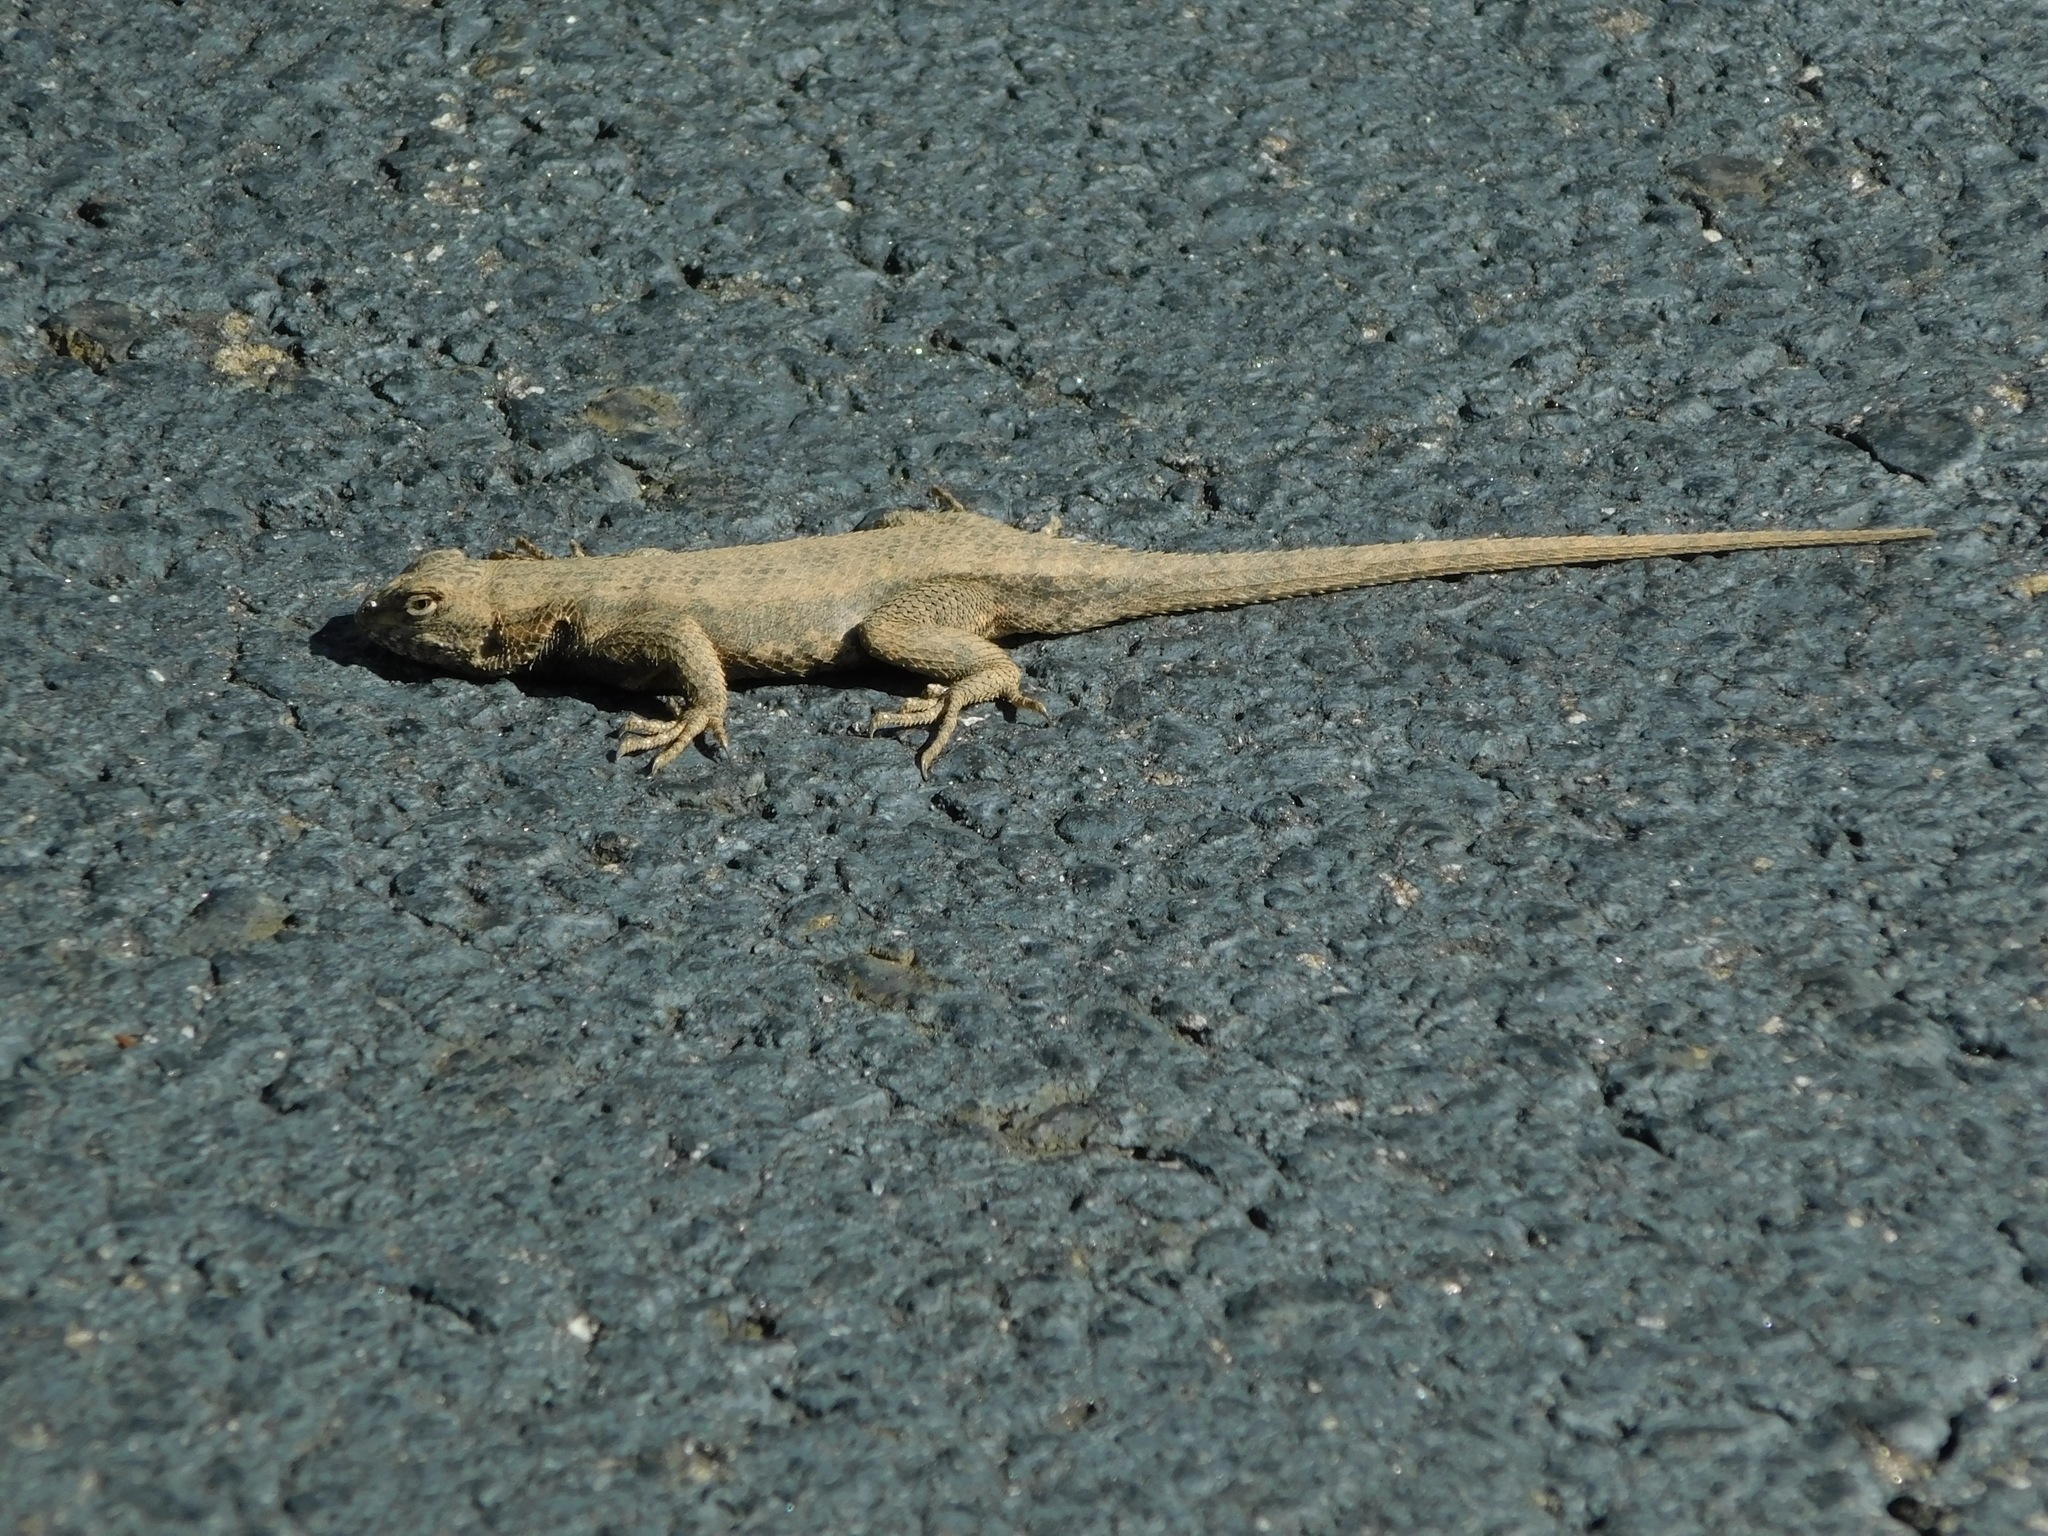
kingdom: Animalia
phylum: Chordata
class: Squamata
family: Phrynosomatidae
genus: Sceloporus
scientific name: Sceloporus undulatus
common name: Eastern fence lizard
